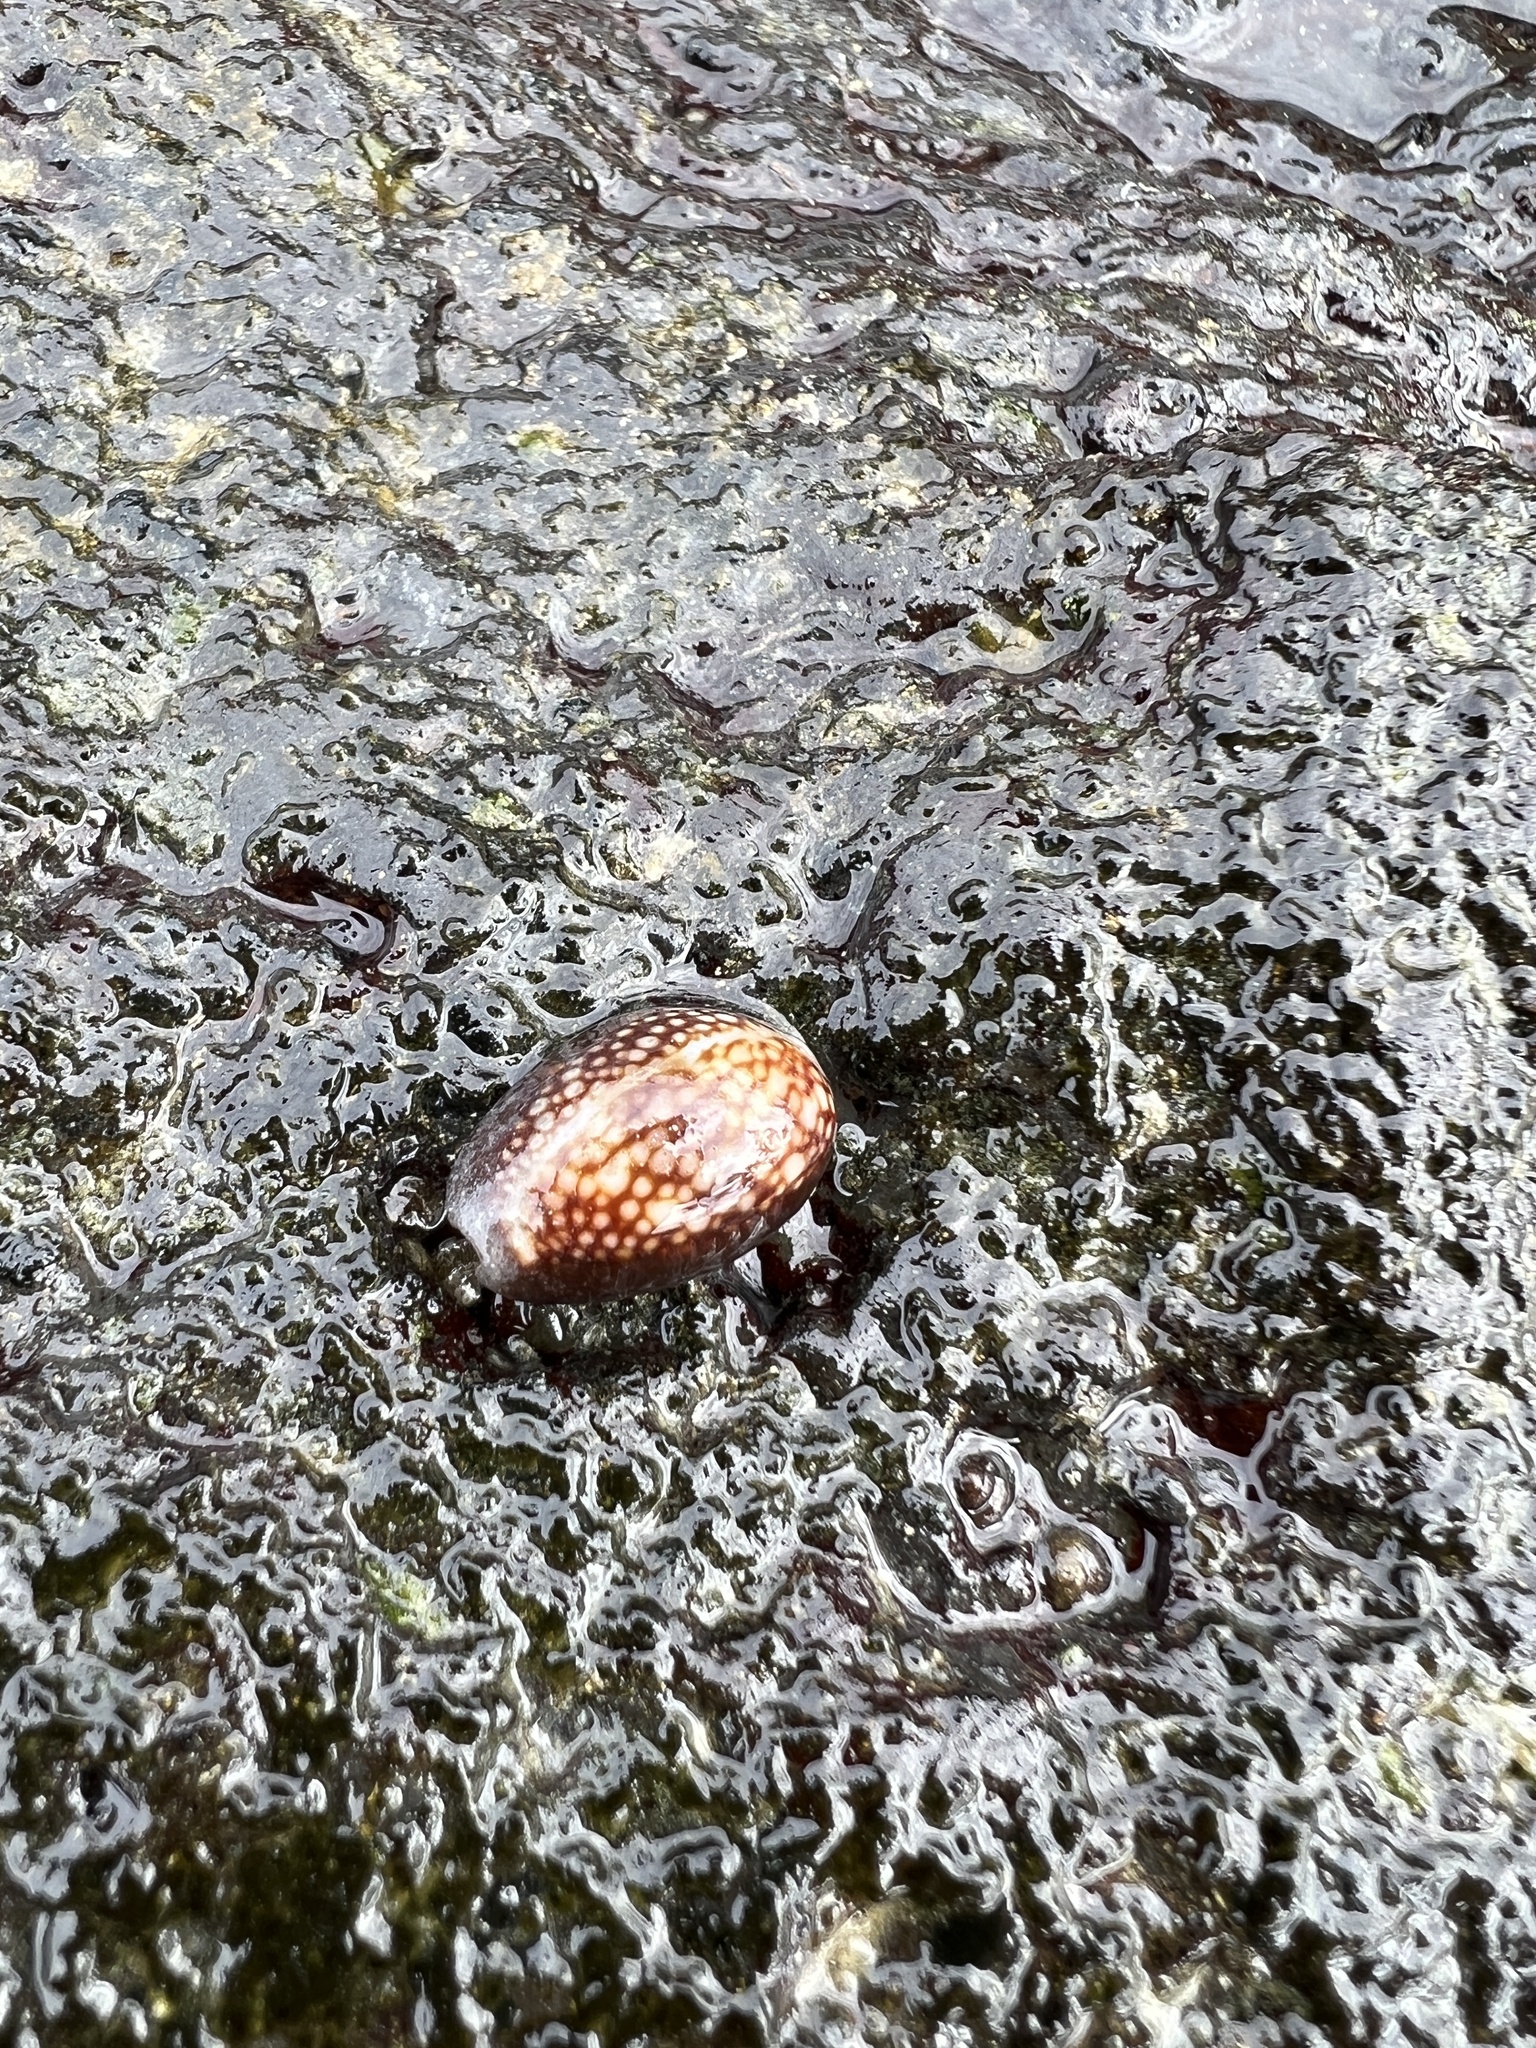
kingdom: Animalia
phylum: Mollusca
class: Gastropoda
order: Littorinimorpha
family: Cypraeidae
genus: Monetaria
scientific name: Monetaria caputophidii
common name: Snake's head cowry
